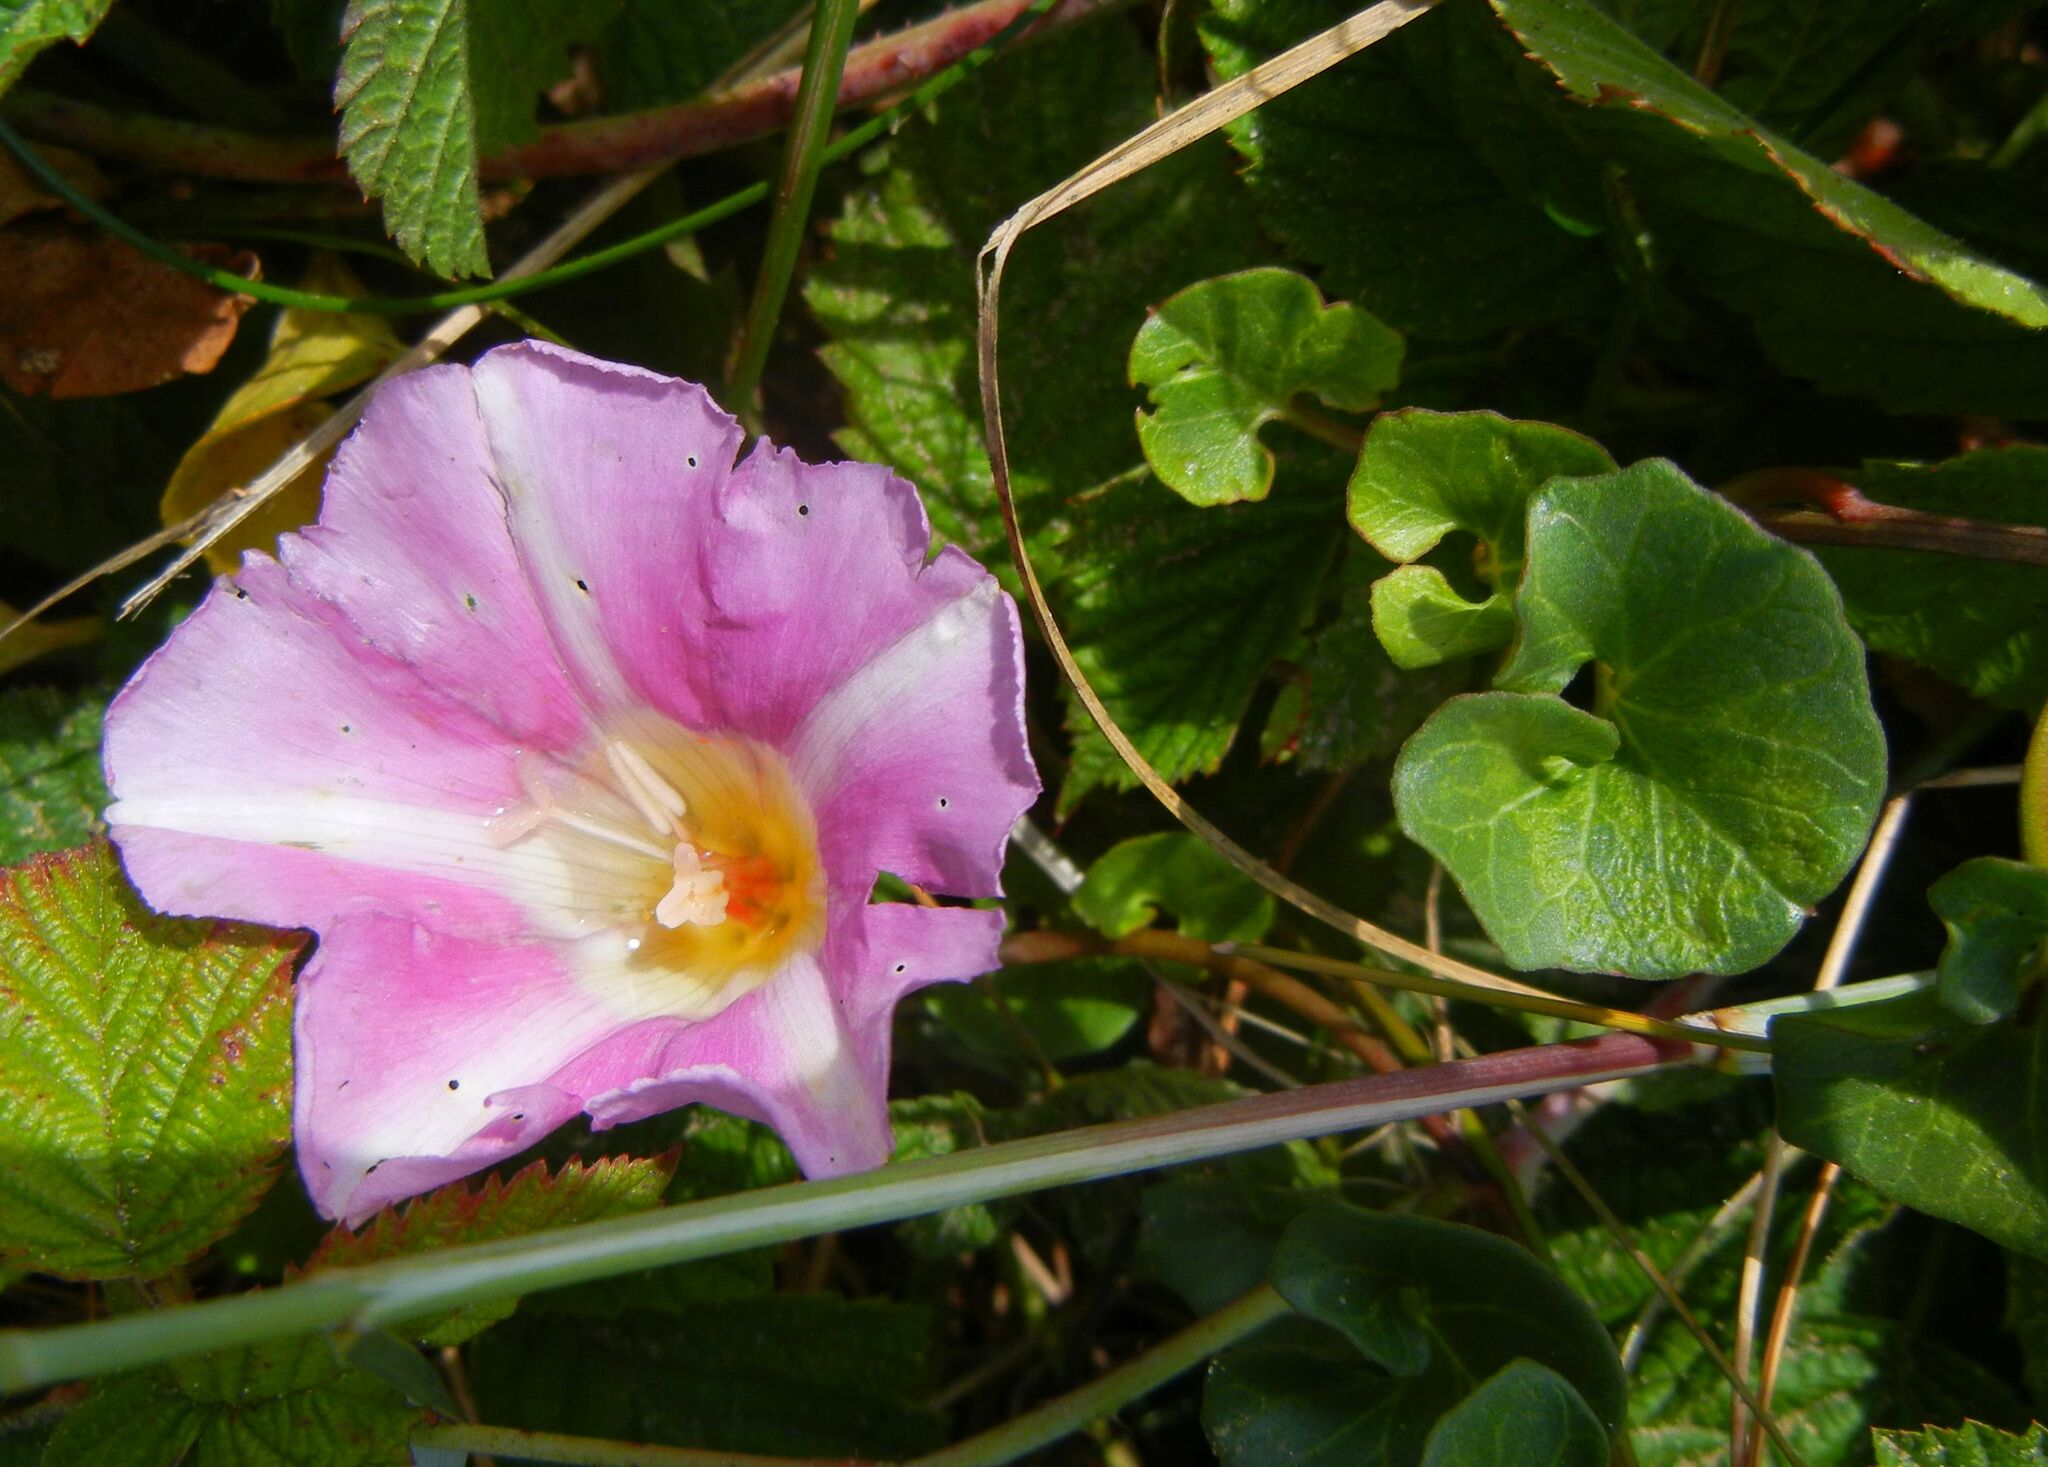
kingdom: Plantae
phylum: Tracheophyta
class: Magnoliopsida
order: Solanales
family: Convolvulaceae
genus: Calystegia
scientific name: Calystegia soldanella
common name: Sea bindweed
